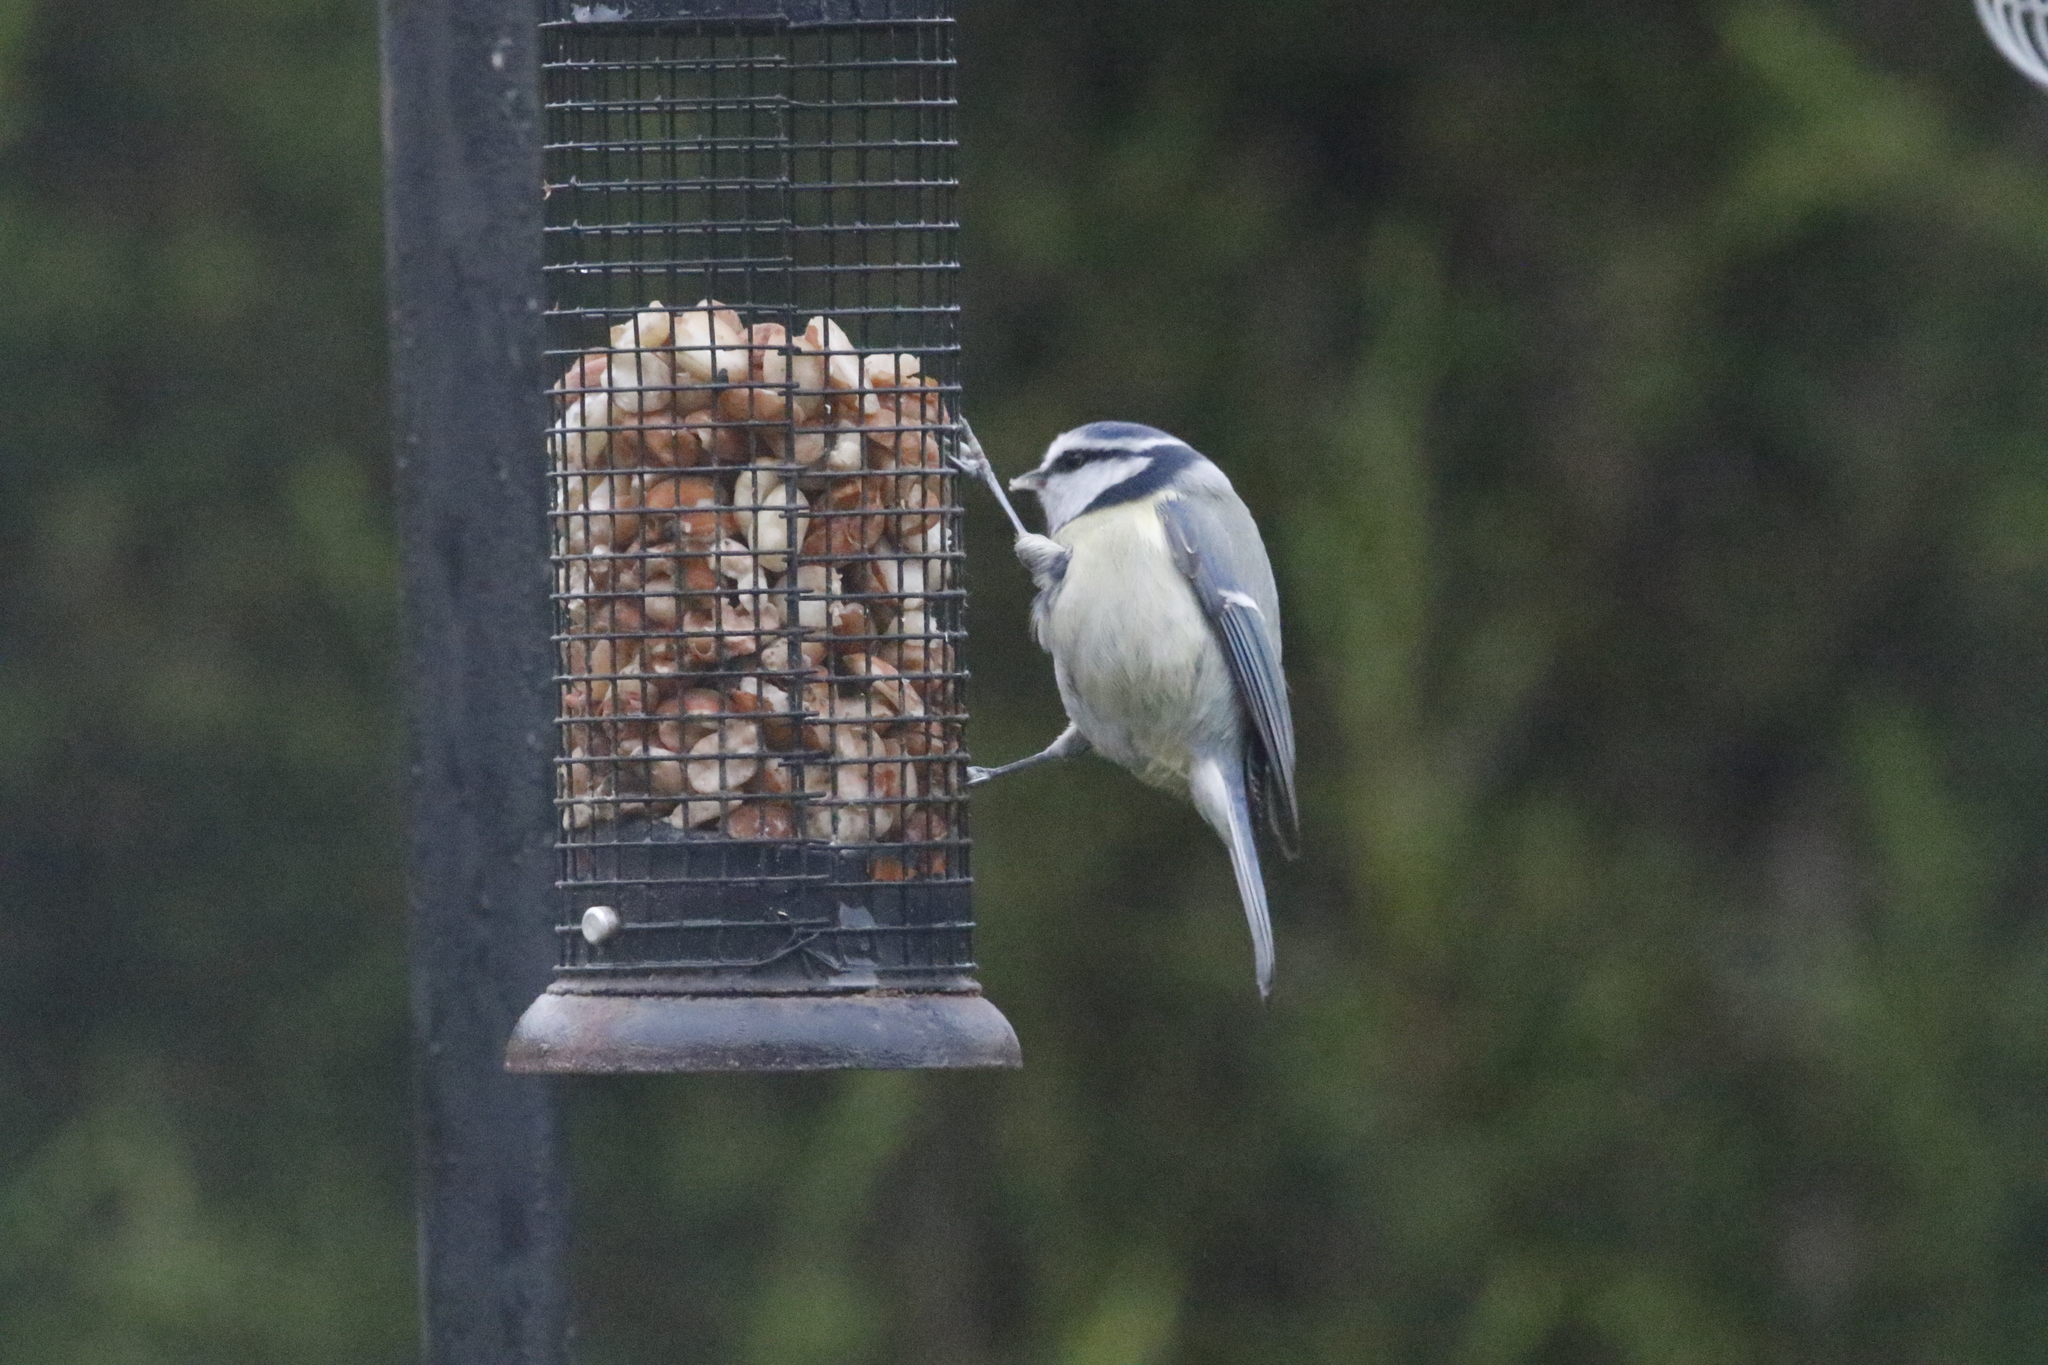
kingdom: Animalia
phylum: Chordata
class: Aves
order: Passeriformes
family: Paridae
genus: Cyanistes
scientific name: Cyanistes caeruleus
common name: Eurasian blue tit
